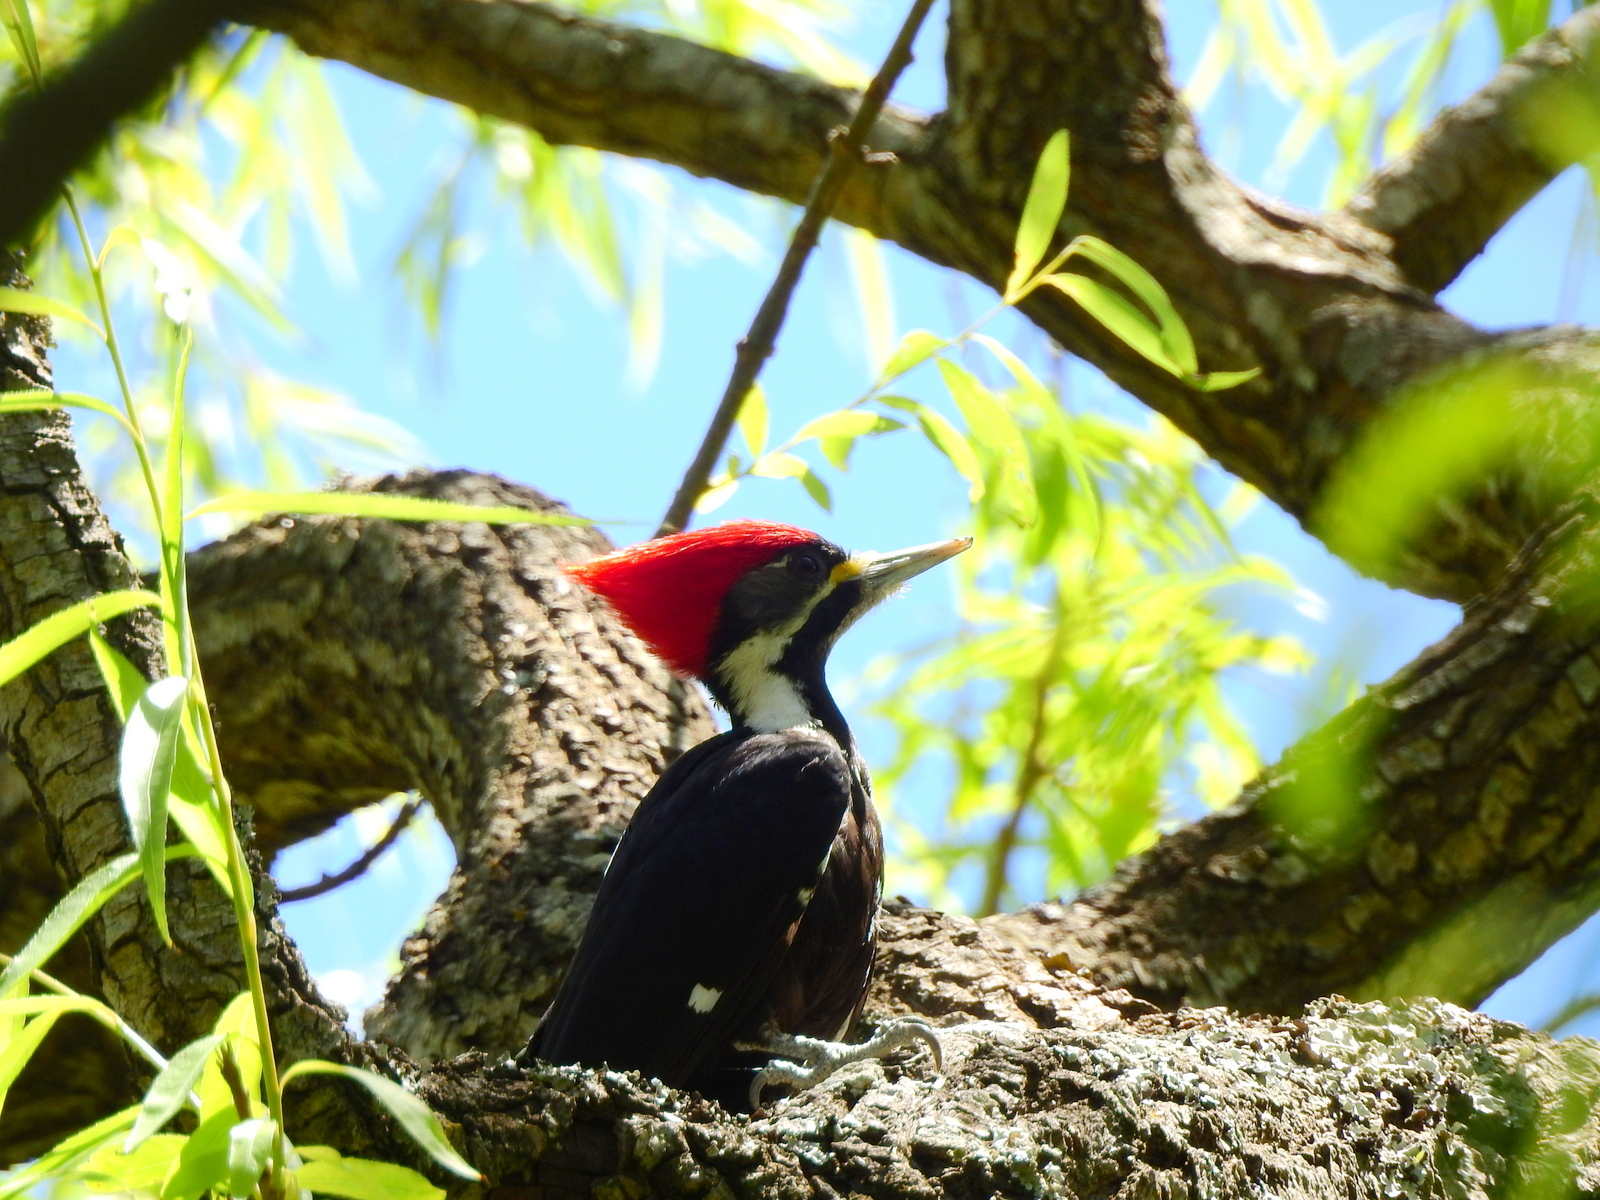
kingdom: Animalia
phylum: Chordata
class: Aves
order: Piciformes
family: Picidae
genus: Dryocopus
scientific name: Dryocopus schulzii
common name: Black-bodied woodpecker
